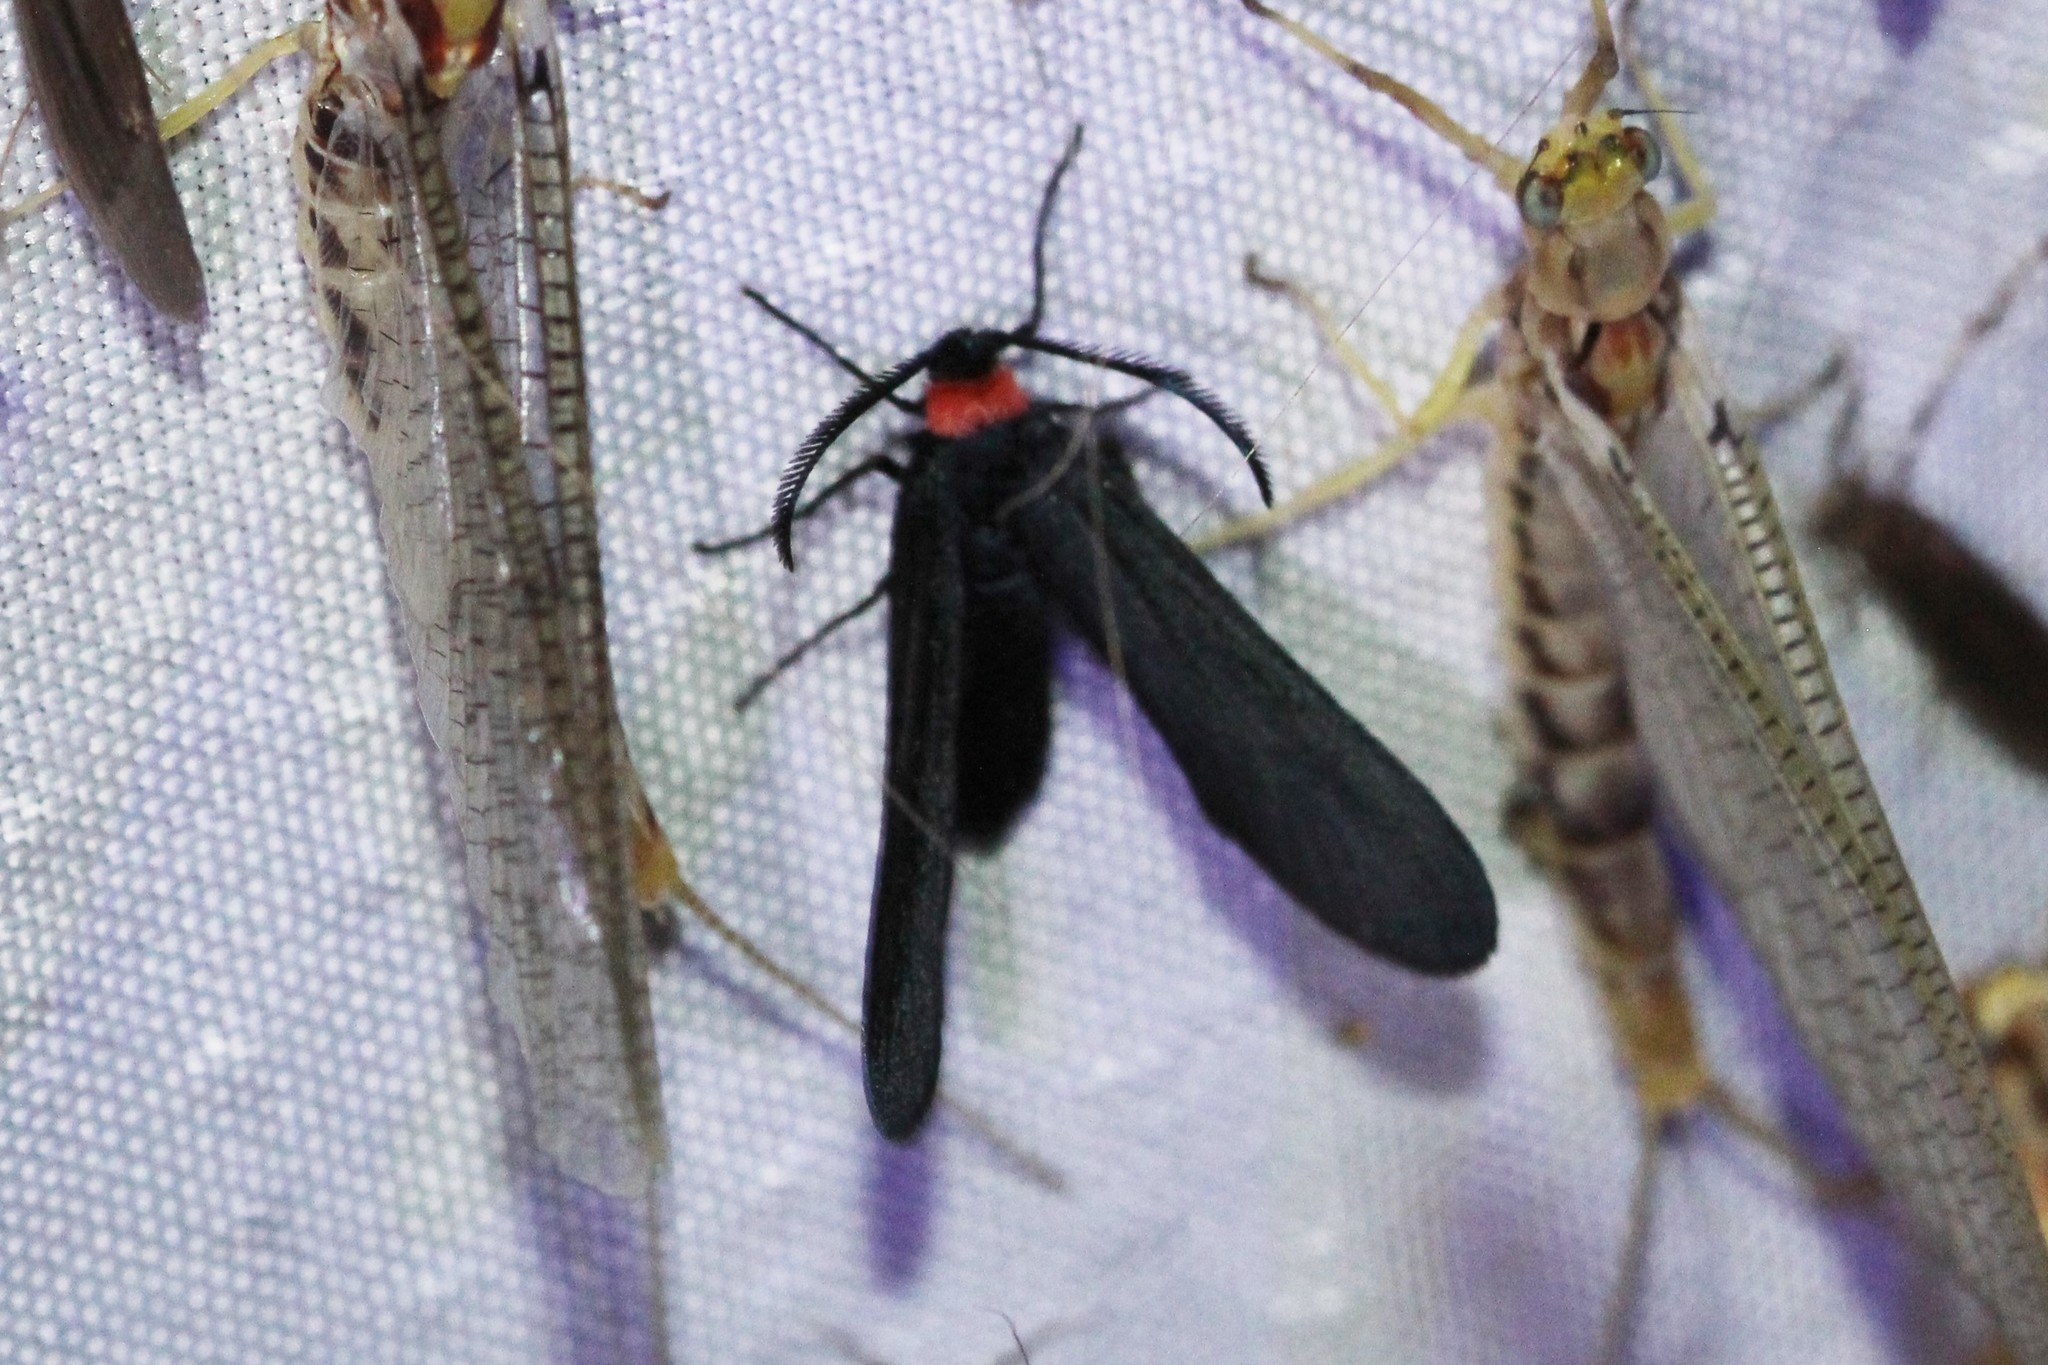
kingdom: Animalia
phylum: Arthropoda
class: Insecta
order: Lepidoptera
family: Zygaenidae
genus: Harrisina
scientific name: Harrisina americana
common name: Grapeleaf skeletonizer moth
